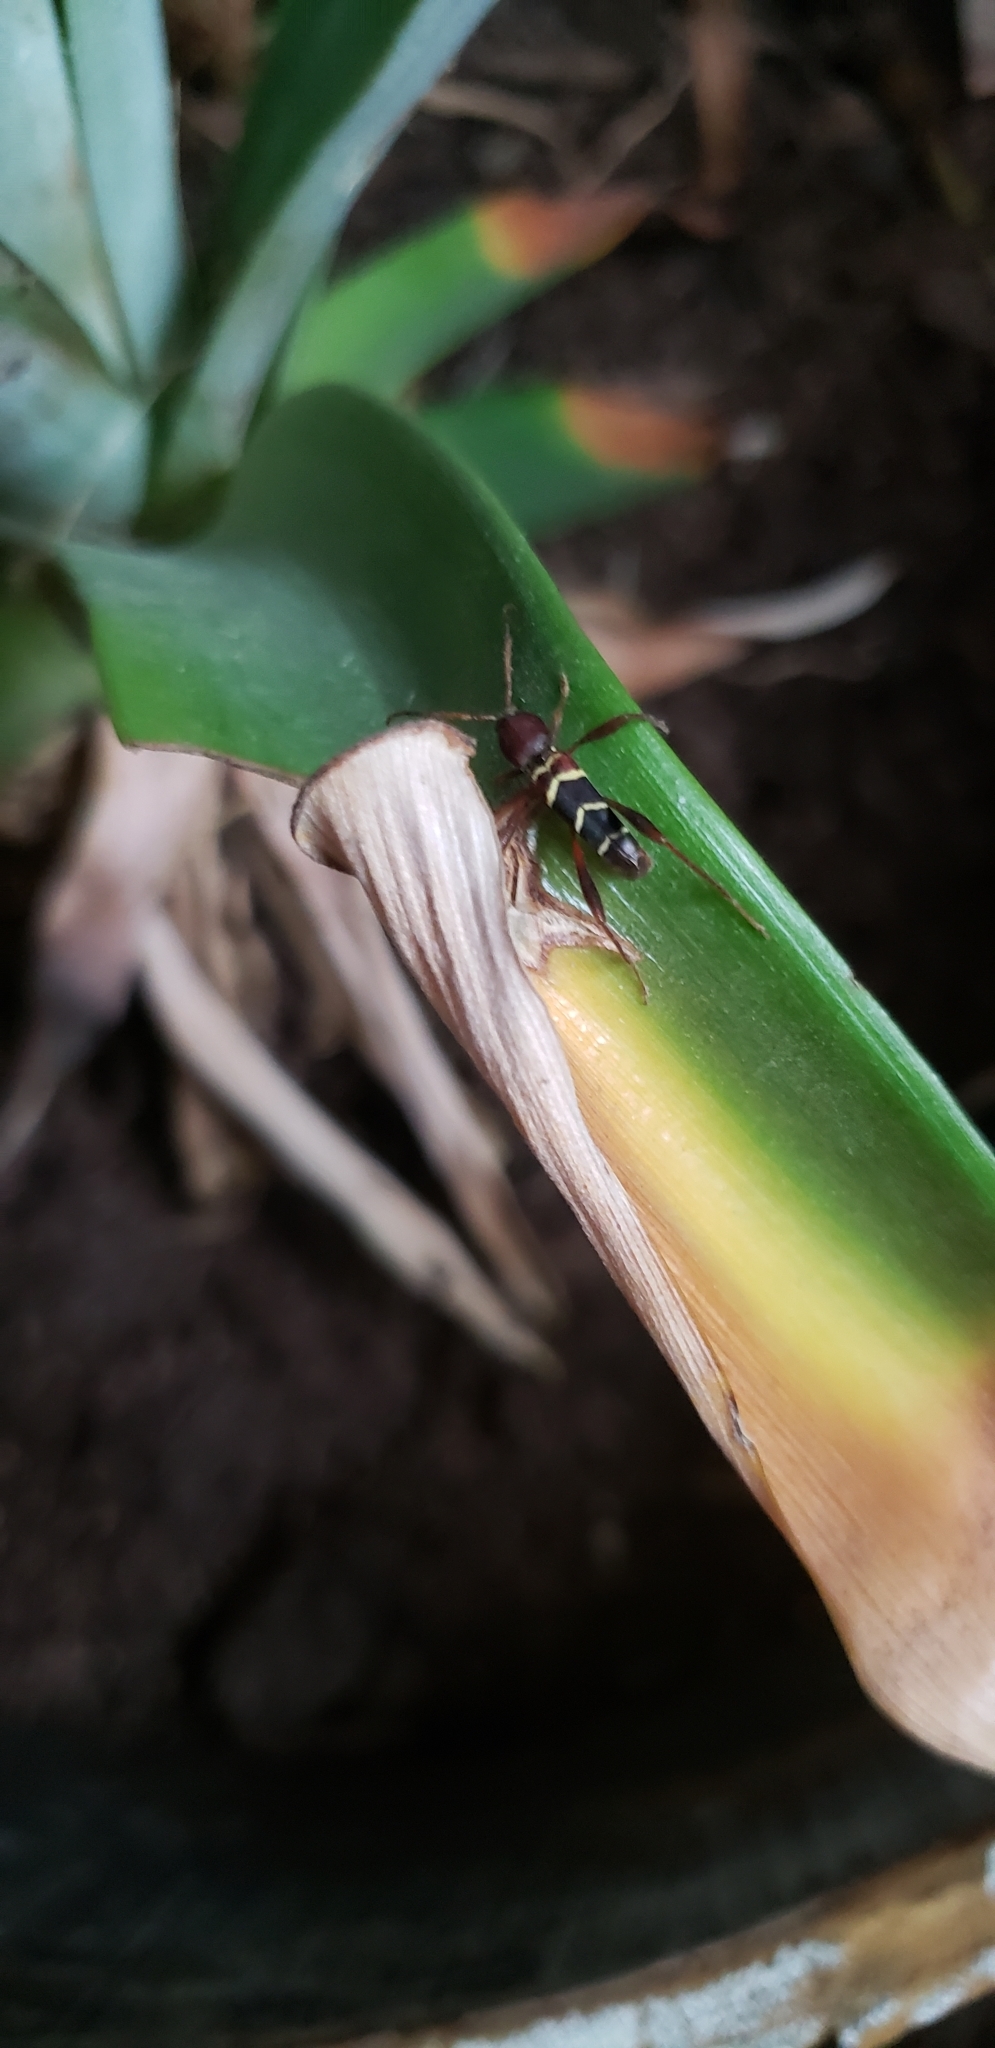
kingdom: Animalia
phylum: Arthropoda
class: Insecta
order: Coleoptera
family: Cerambycidae
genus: Neoclytus
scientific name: Neoclytus acuminatus
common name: Read-headed ash borer
